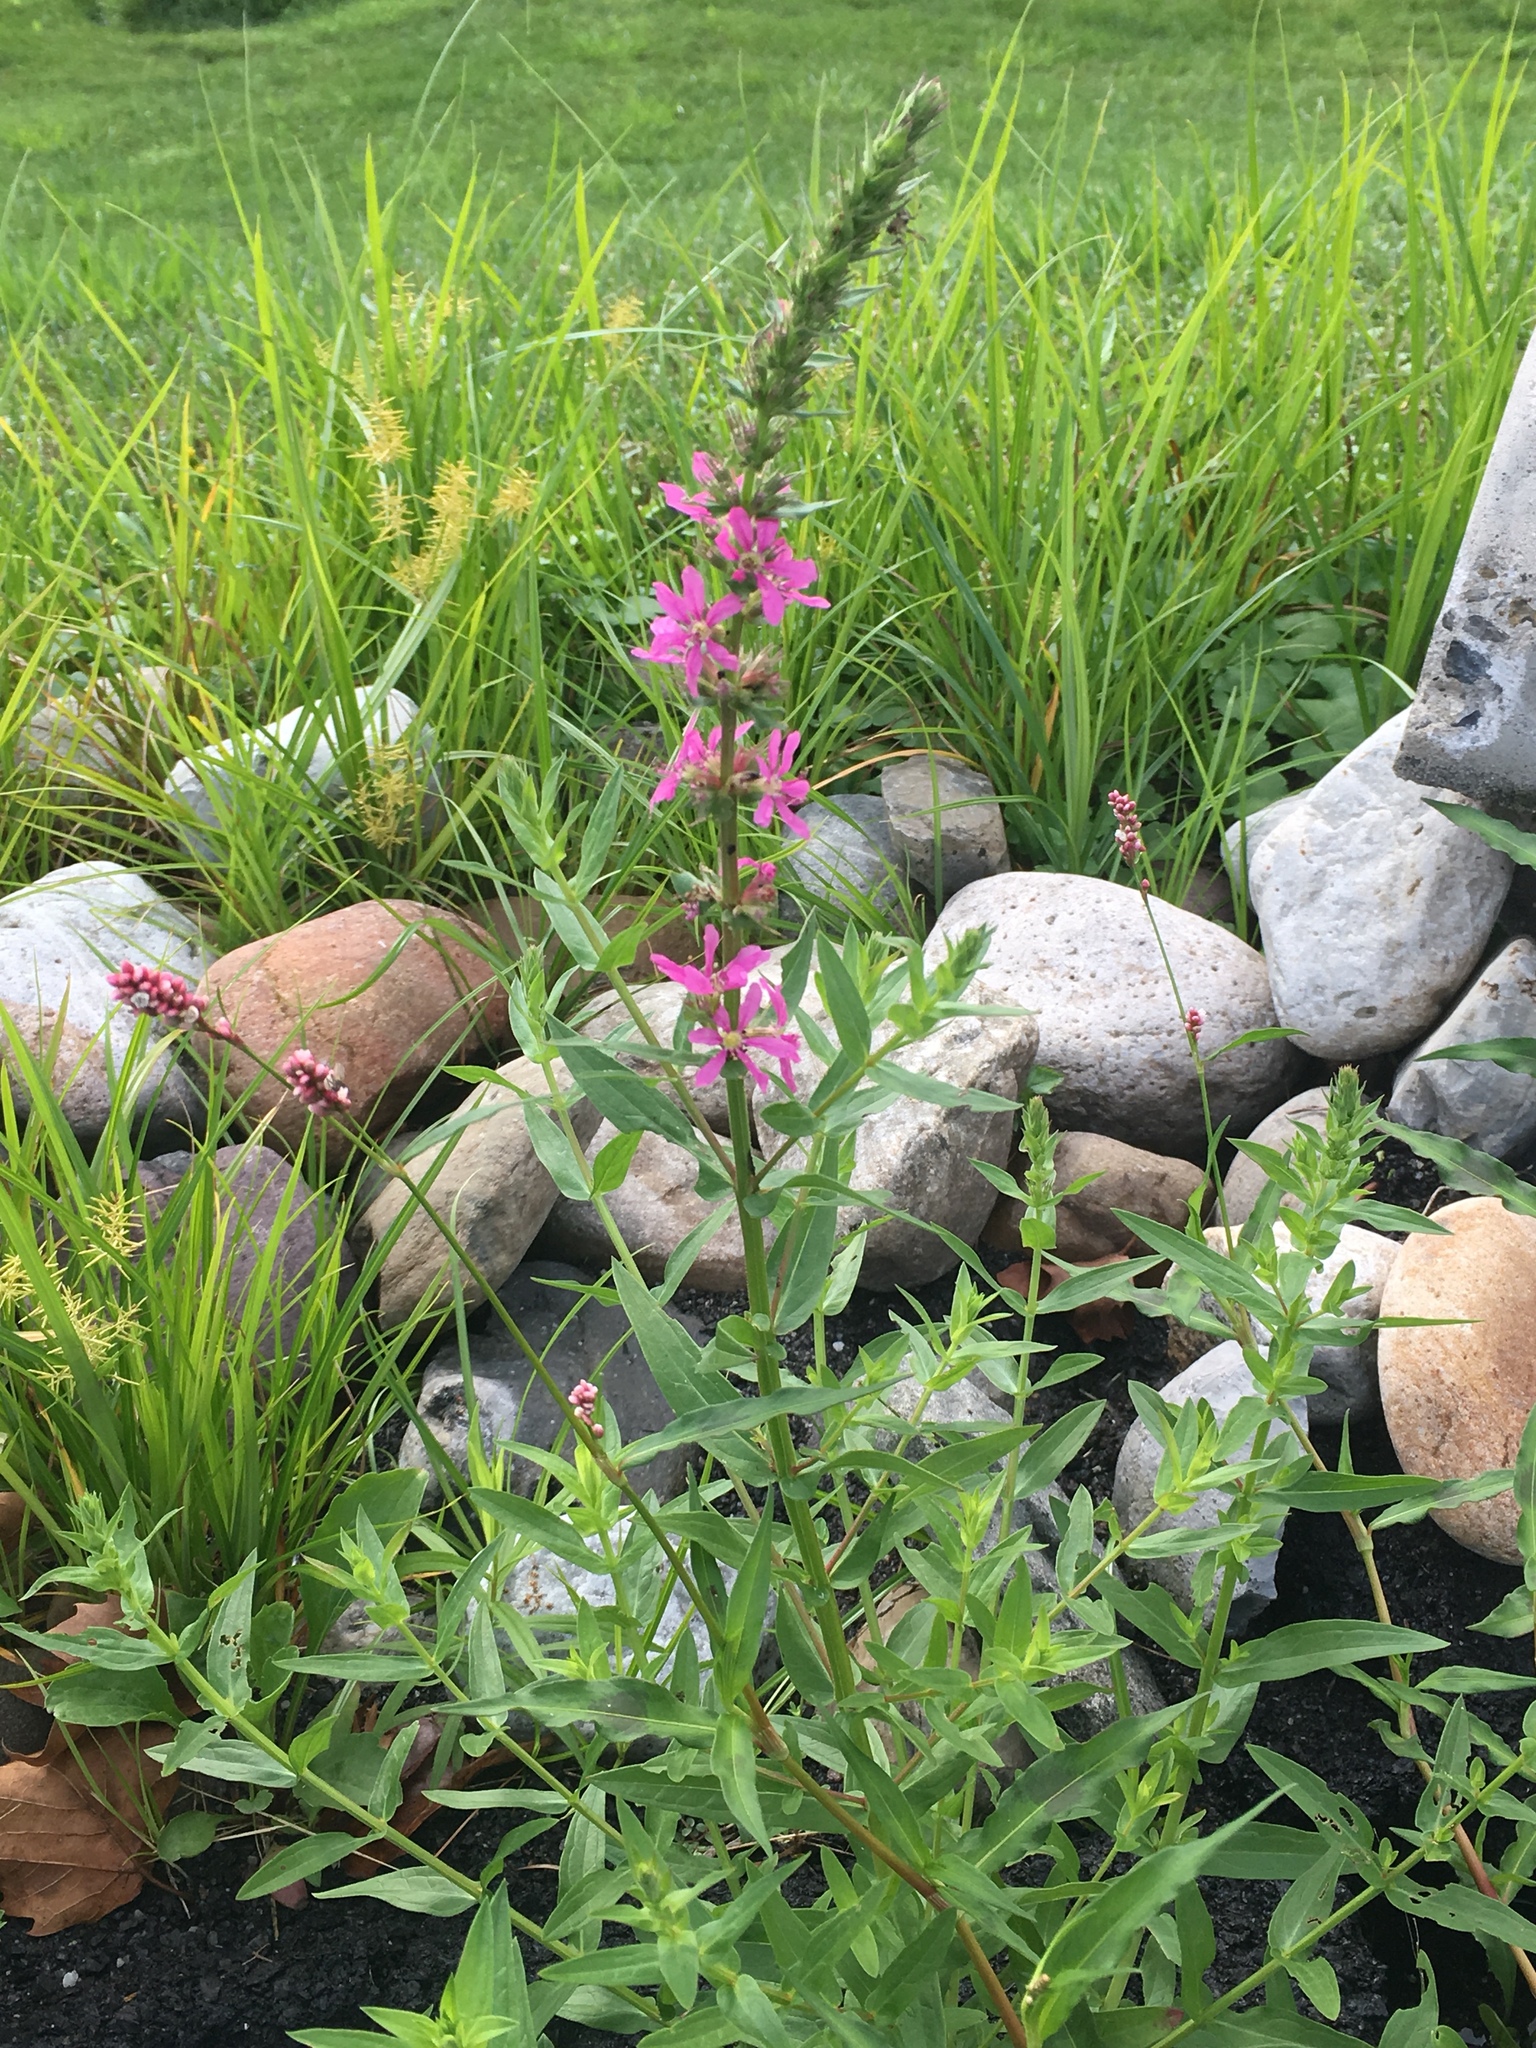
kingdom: Plantae
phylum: Tracheophyta
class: Magnoliopsida
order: Myrtales
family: Lythraceae
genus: Lythrum
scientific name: Lythrum salicaria
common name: Purple loosestrife
